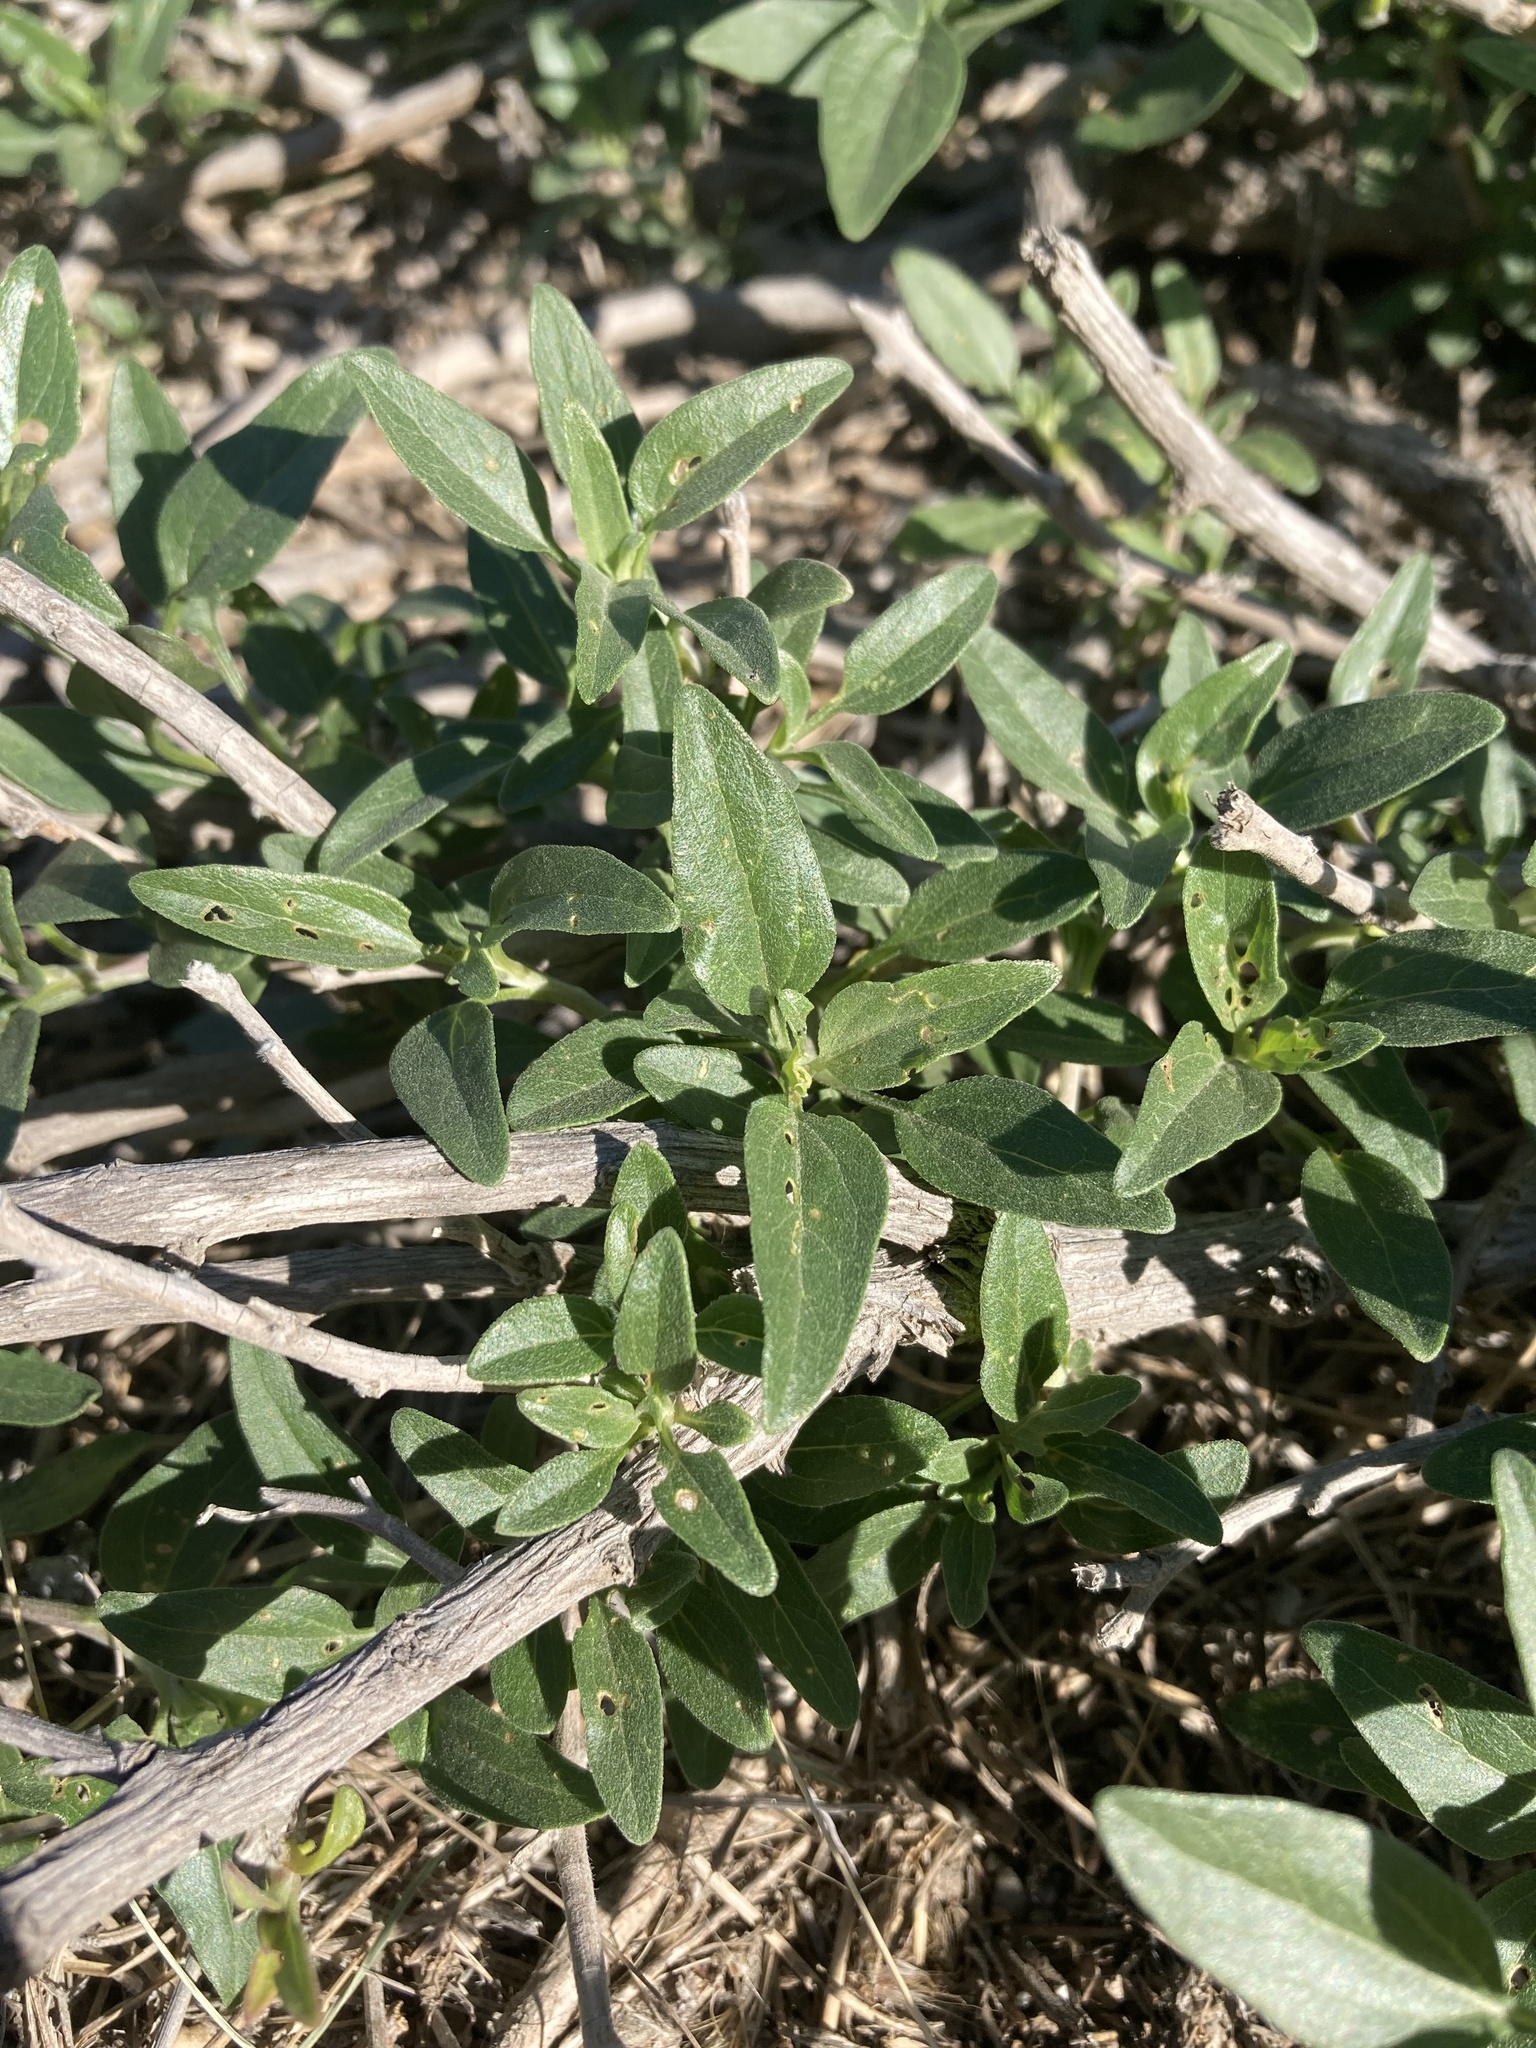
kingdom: Plantae
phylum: Tracheophyta
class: Magnoliopsida
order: Asterales
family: Asteraceae
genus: Encelia
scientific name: Encelia californica
